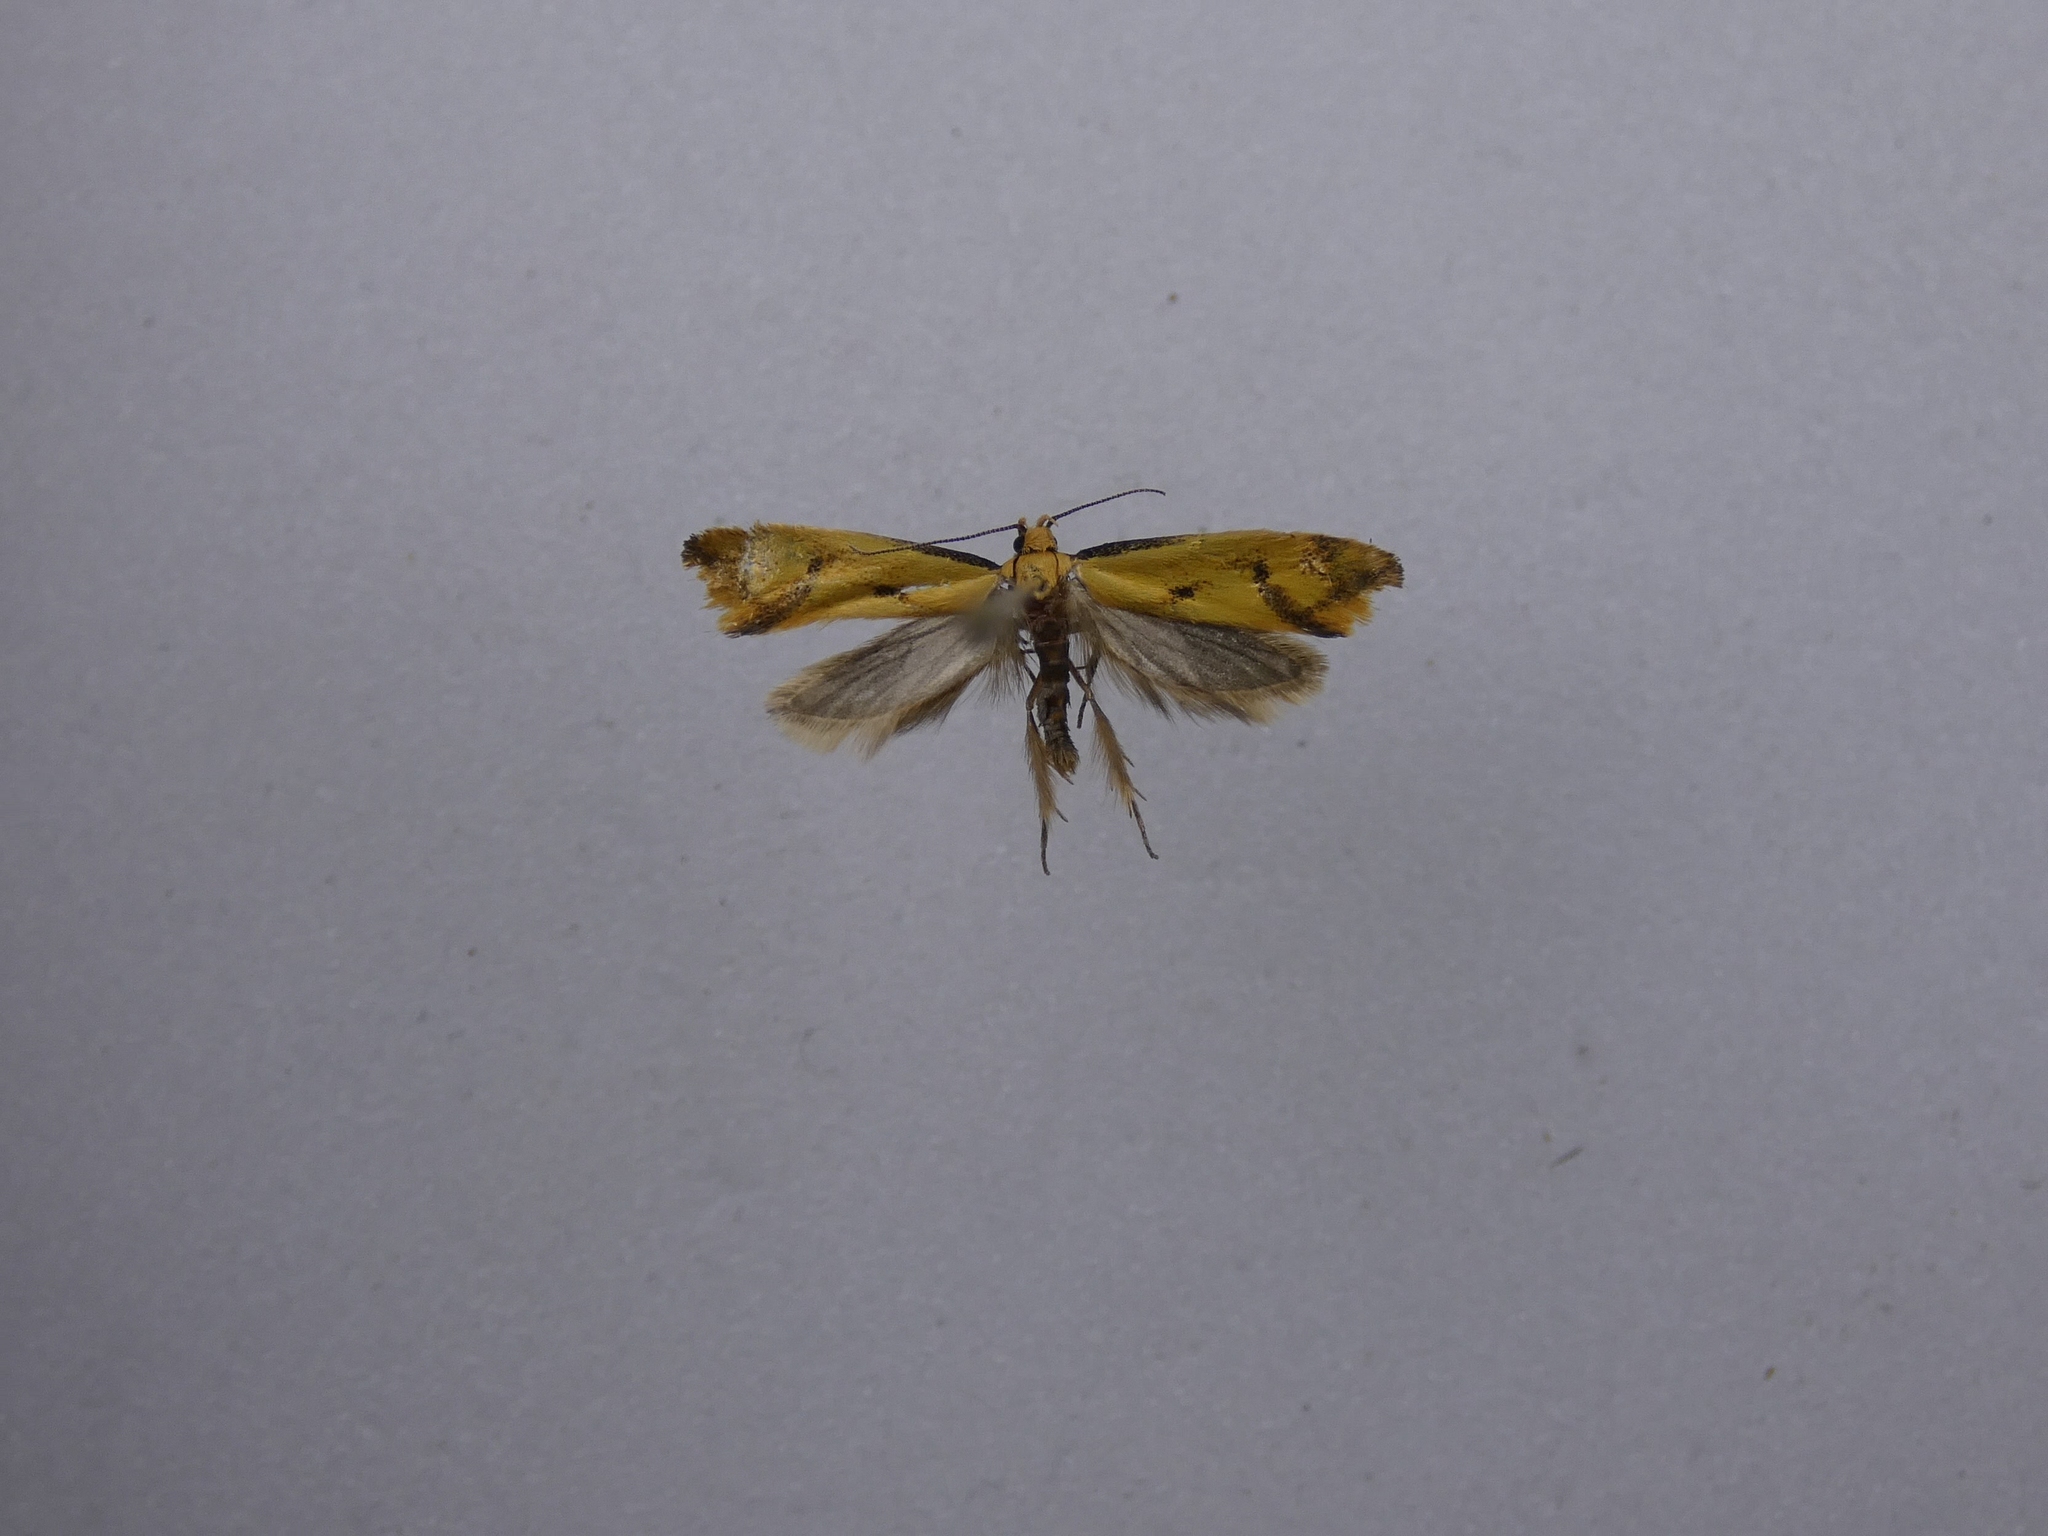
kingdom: Animalia
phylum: Arthropoda
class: Insecta
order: Lepidoptera
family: Oecophoridae
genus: Tingena
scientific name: Tingena actinias
